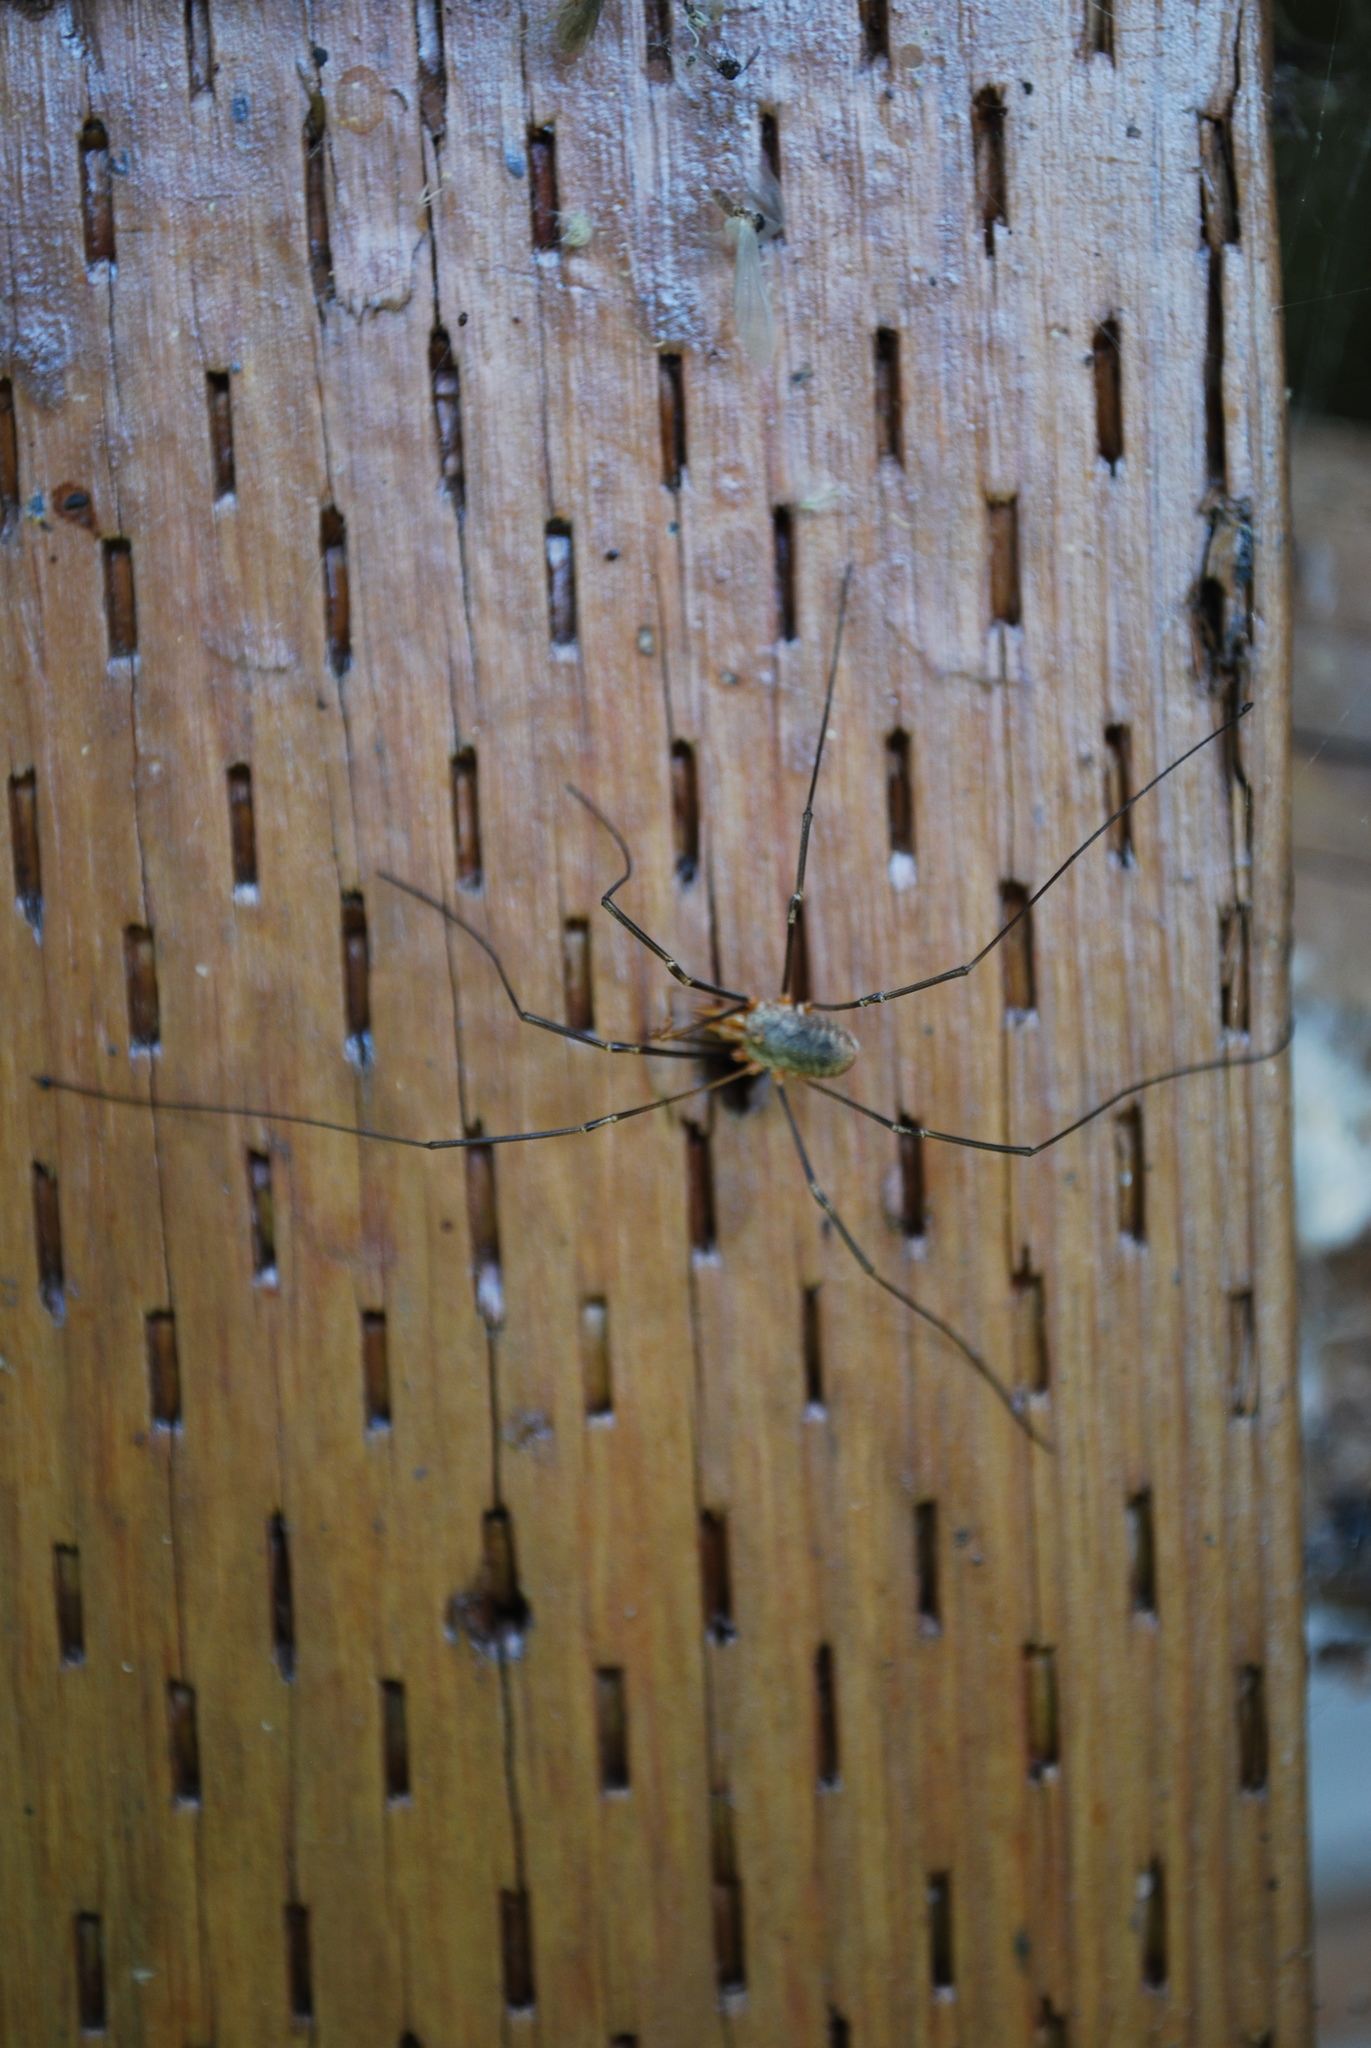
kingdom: Animalia
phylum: Arthropoda
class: Arachnida
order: Opiliones
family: Phalangiidae
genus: Phalangium
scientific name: Phalangium opilio
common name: Daddy longleg
